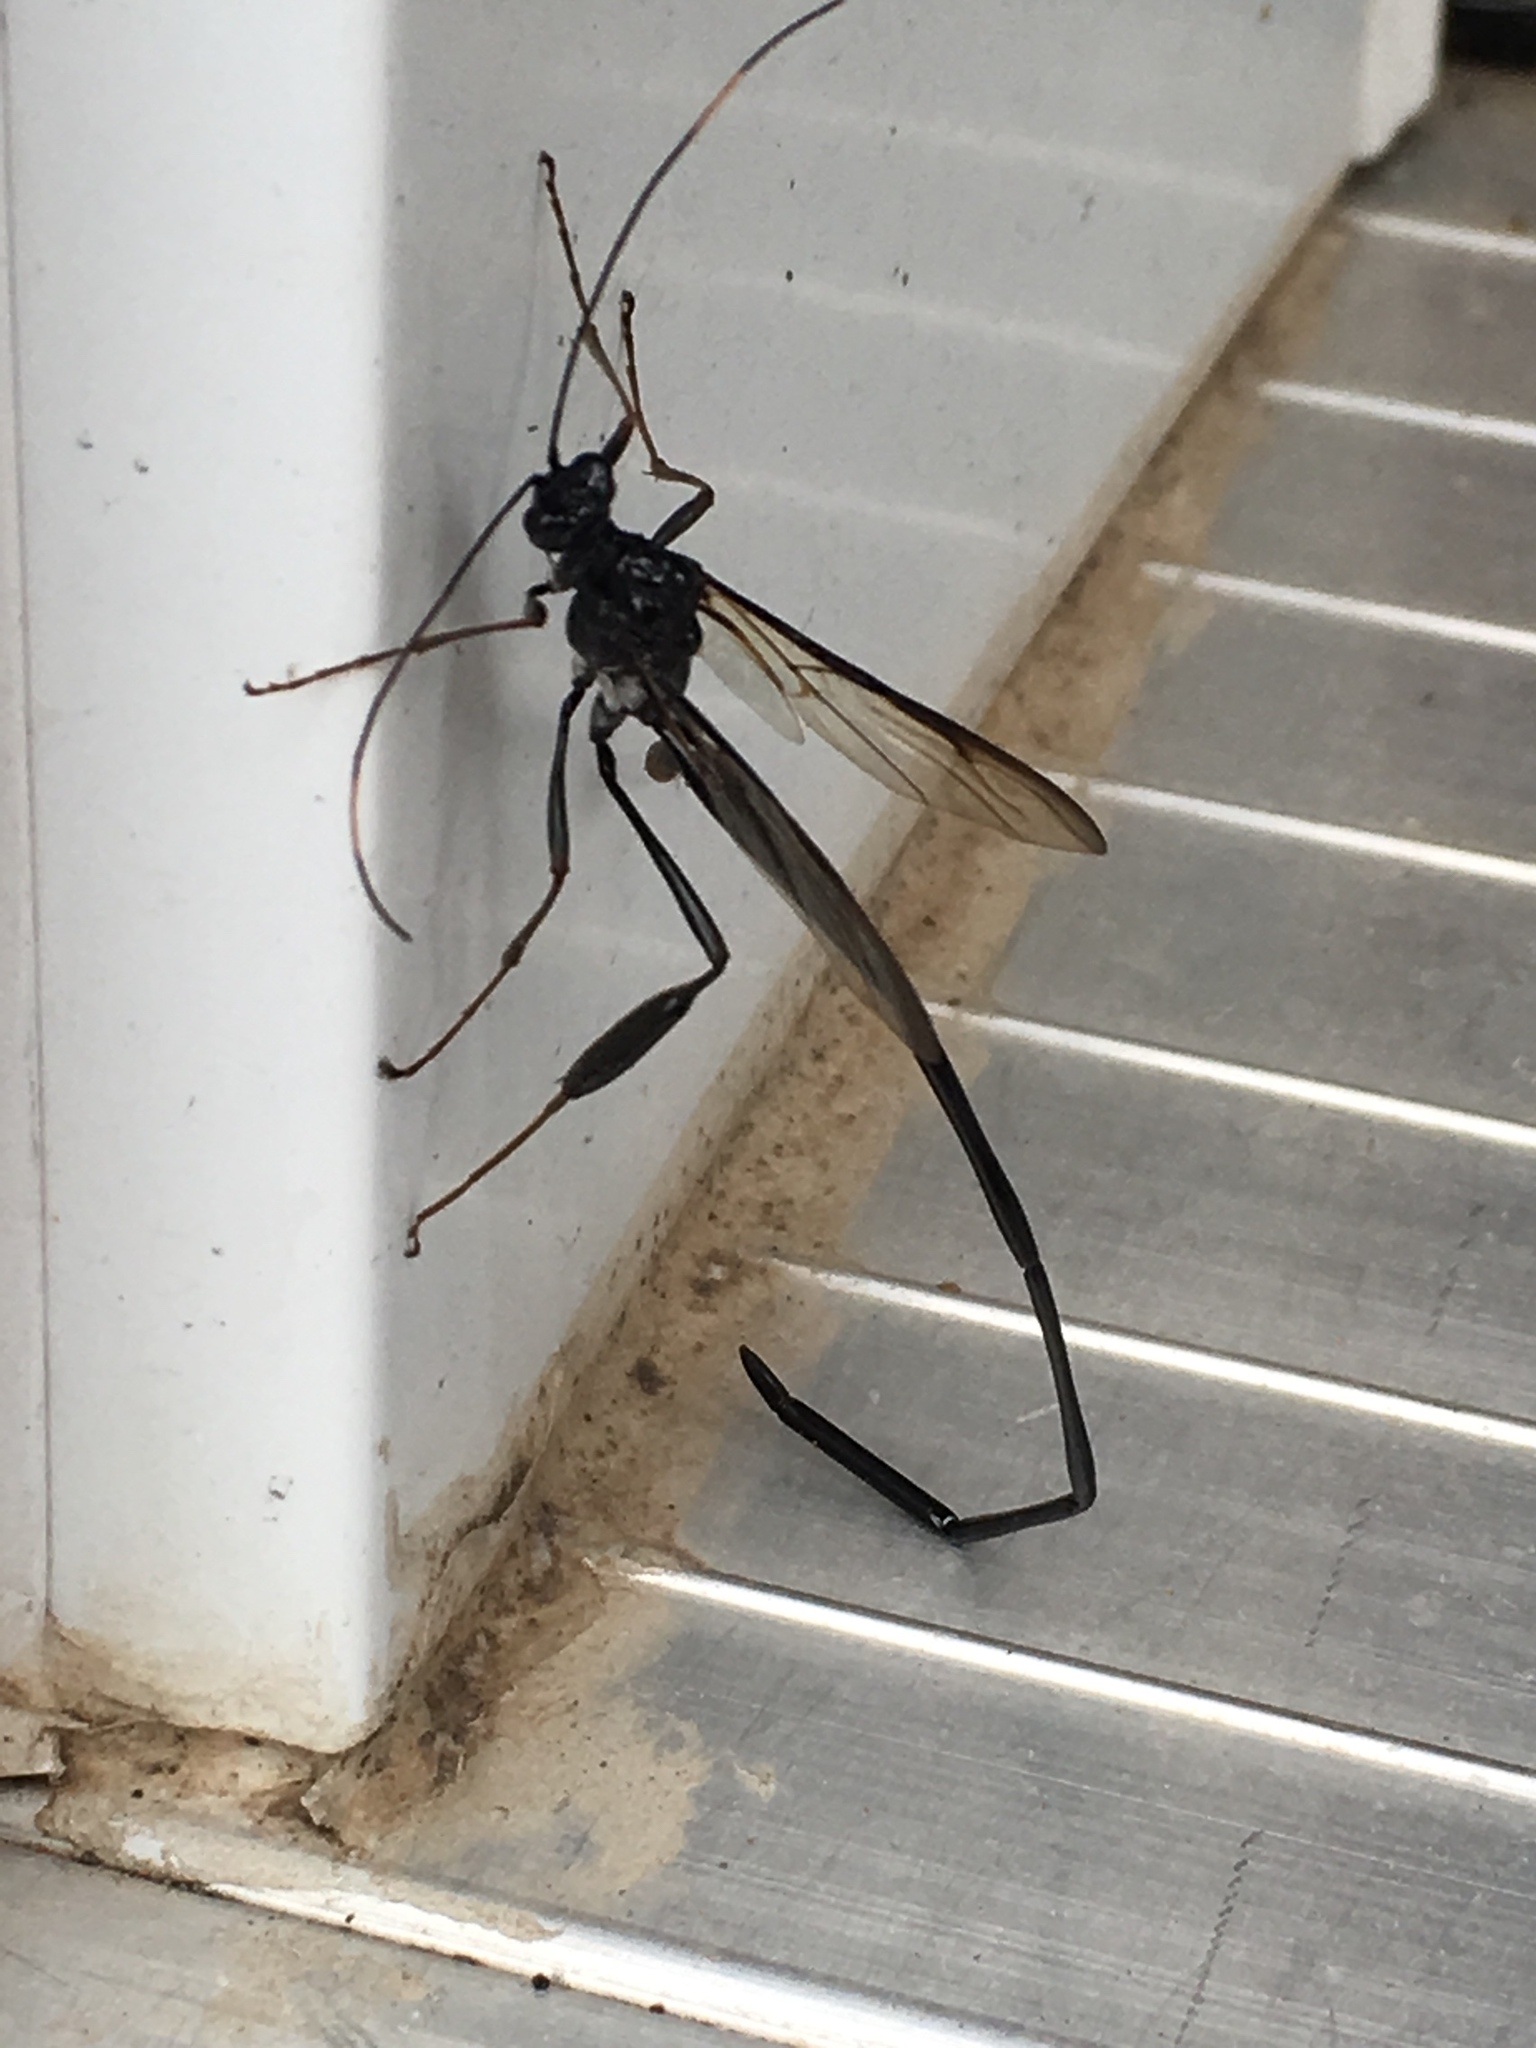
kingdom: Animalia
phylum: Arthropoda
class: Insecta
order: Hymenoptera
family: Pelecinidae
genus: Pelecinus
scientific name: Pelecinus polyturator
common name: American pelecinid wasp
